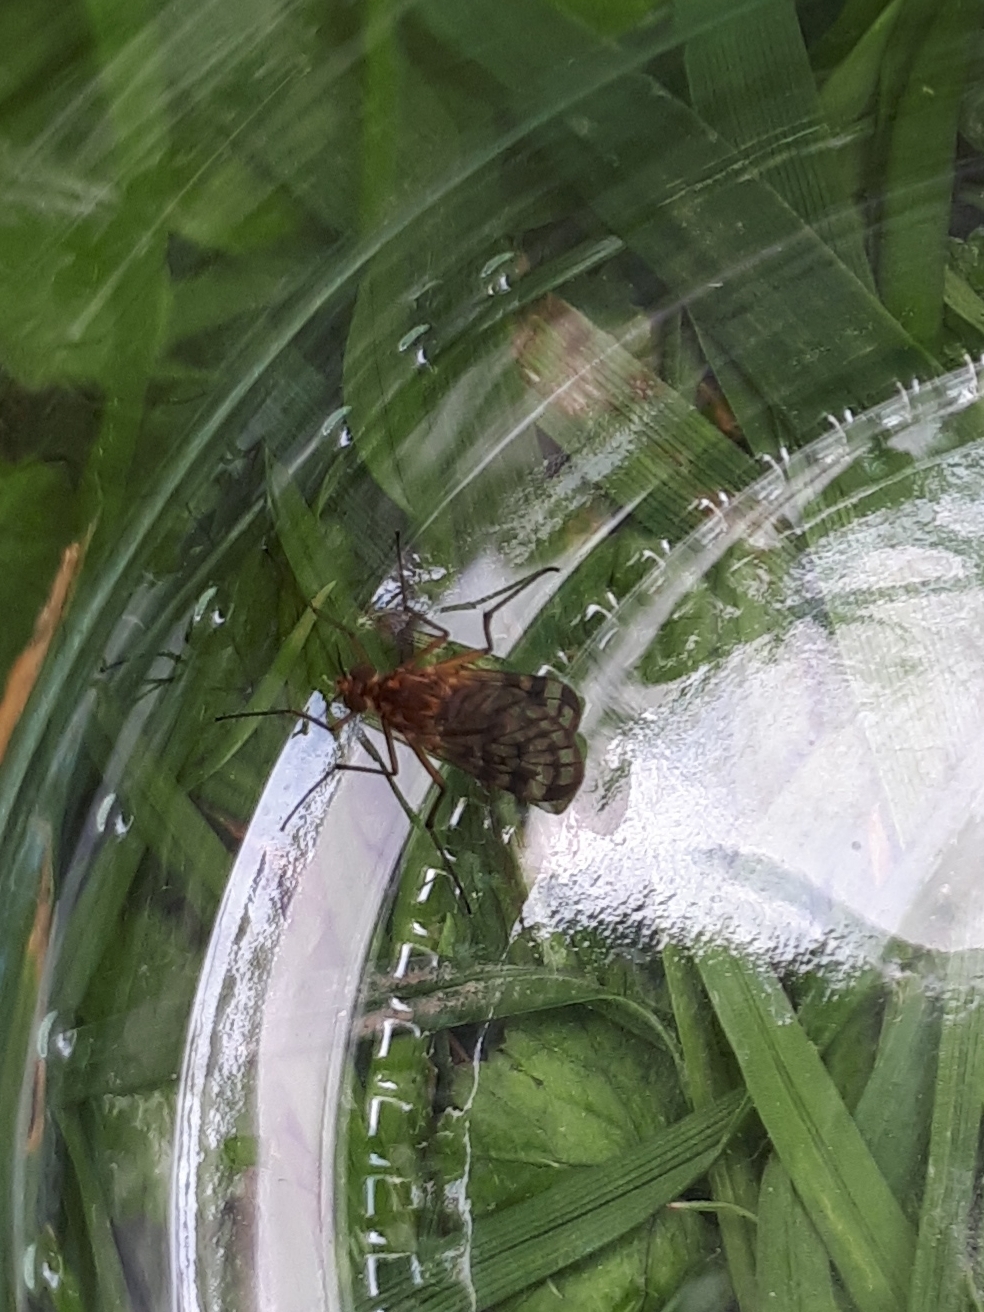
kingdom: Animalia
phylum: Arthropoda
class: Insecta
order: Diptera
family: Anisopodidae
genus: Sylvicola
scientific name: Sylvicola dubius
